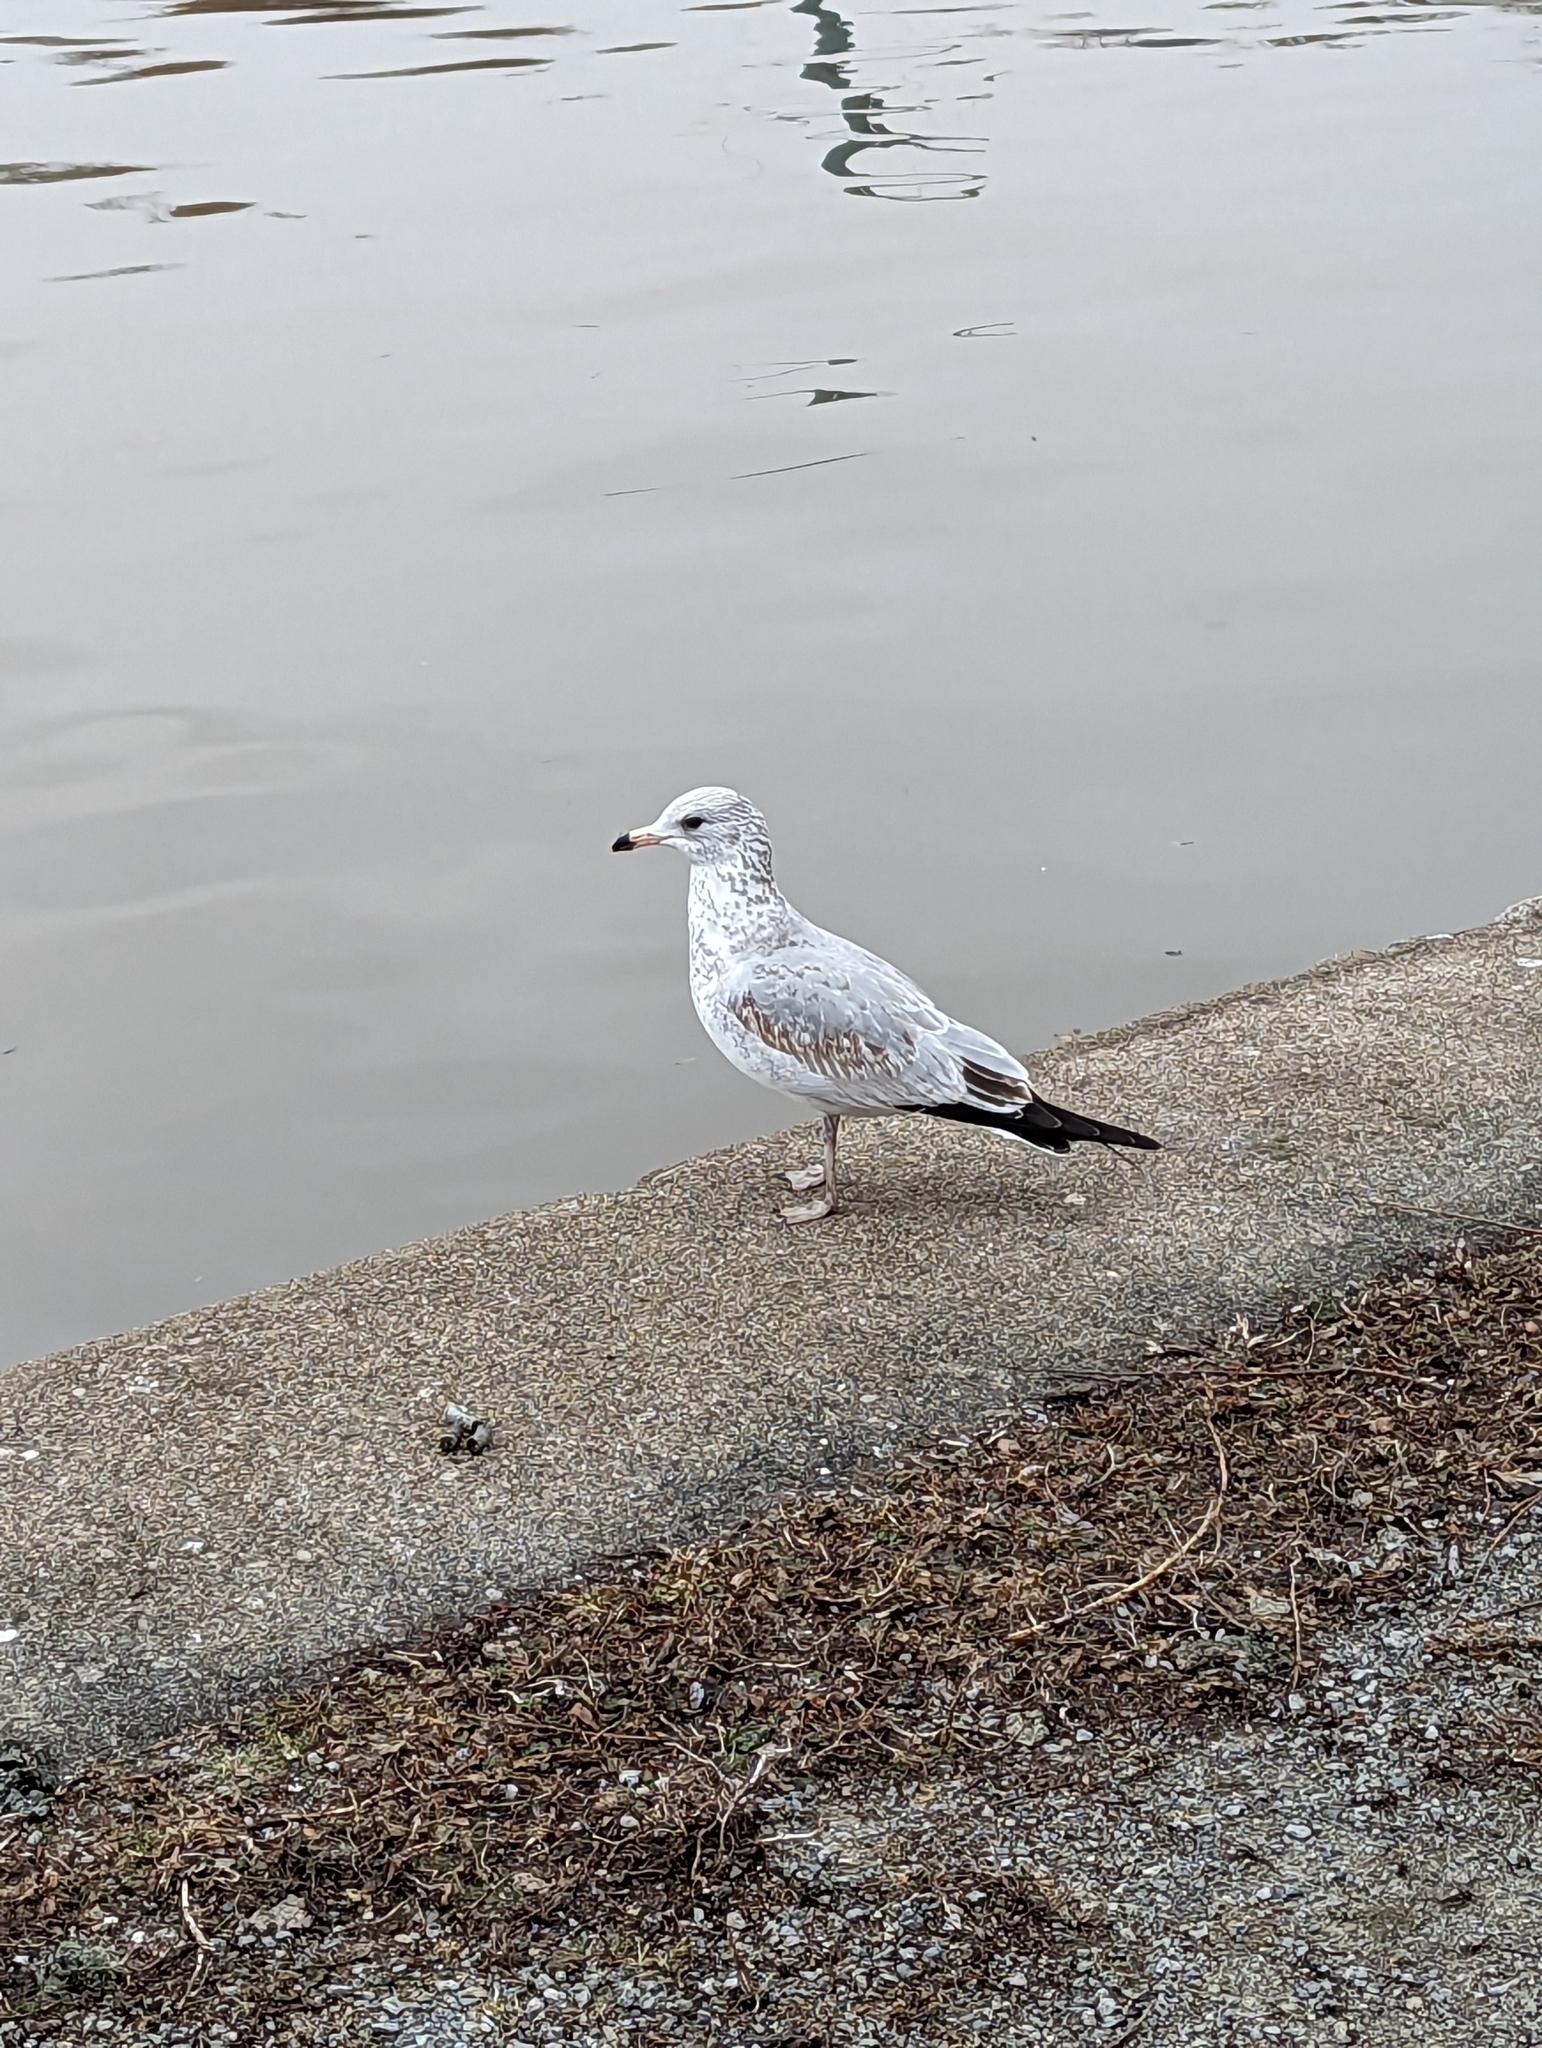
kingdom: Animalia
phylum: Chordata
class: Aves
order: Charadriiformes
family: Laridae
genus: Larus
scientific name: Larus delawarensis
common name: Ring-billed gull
